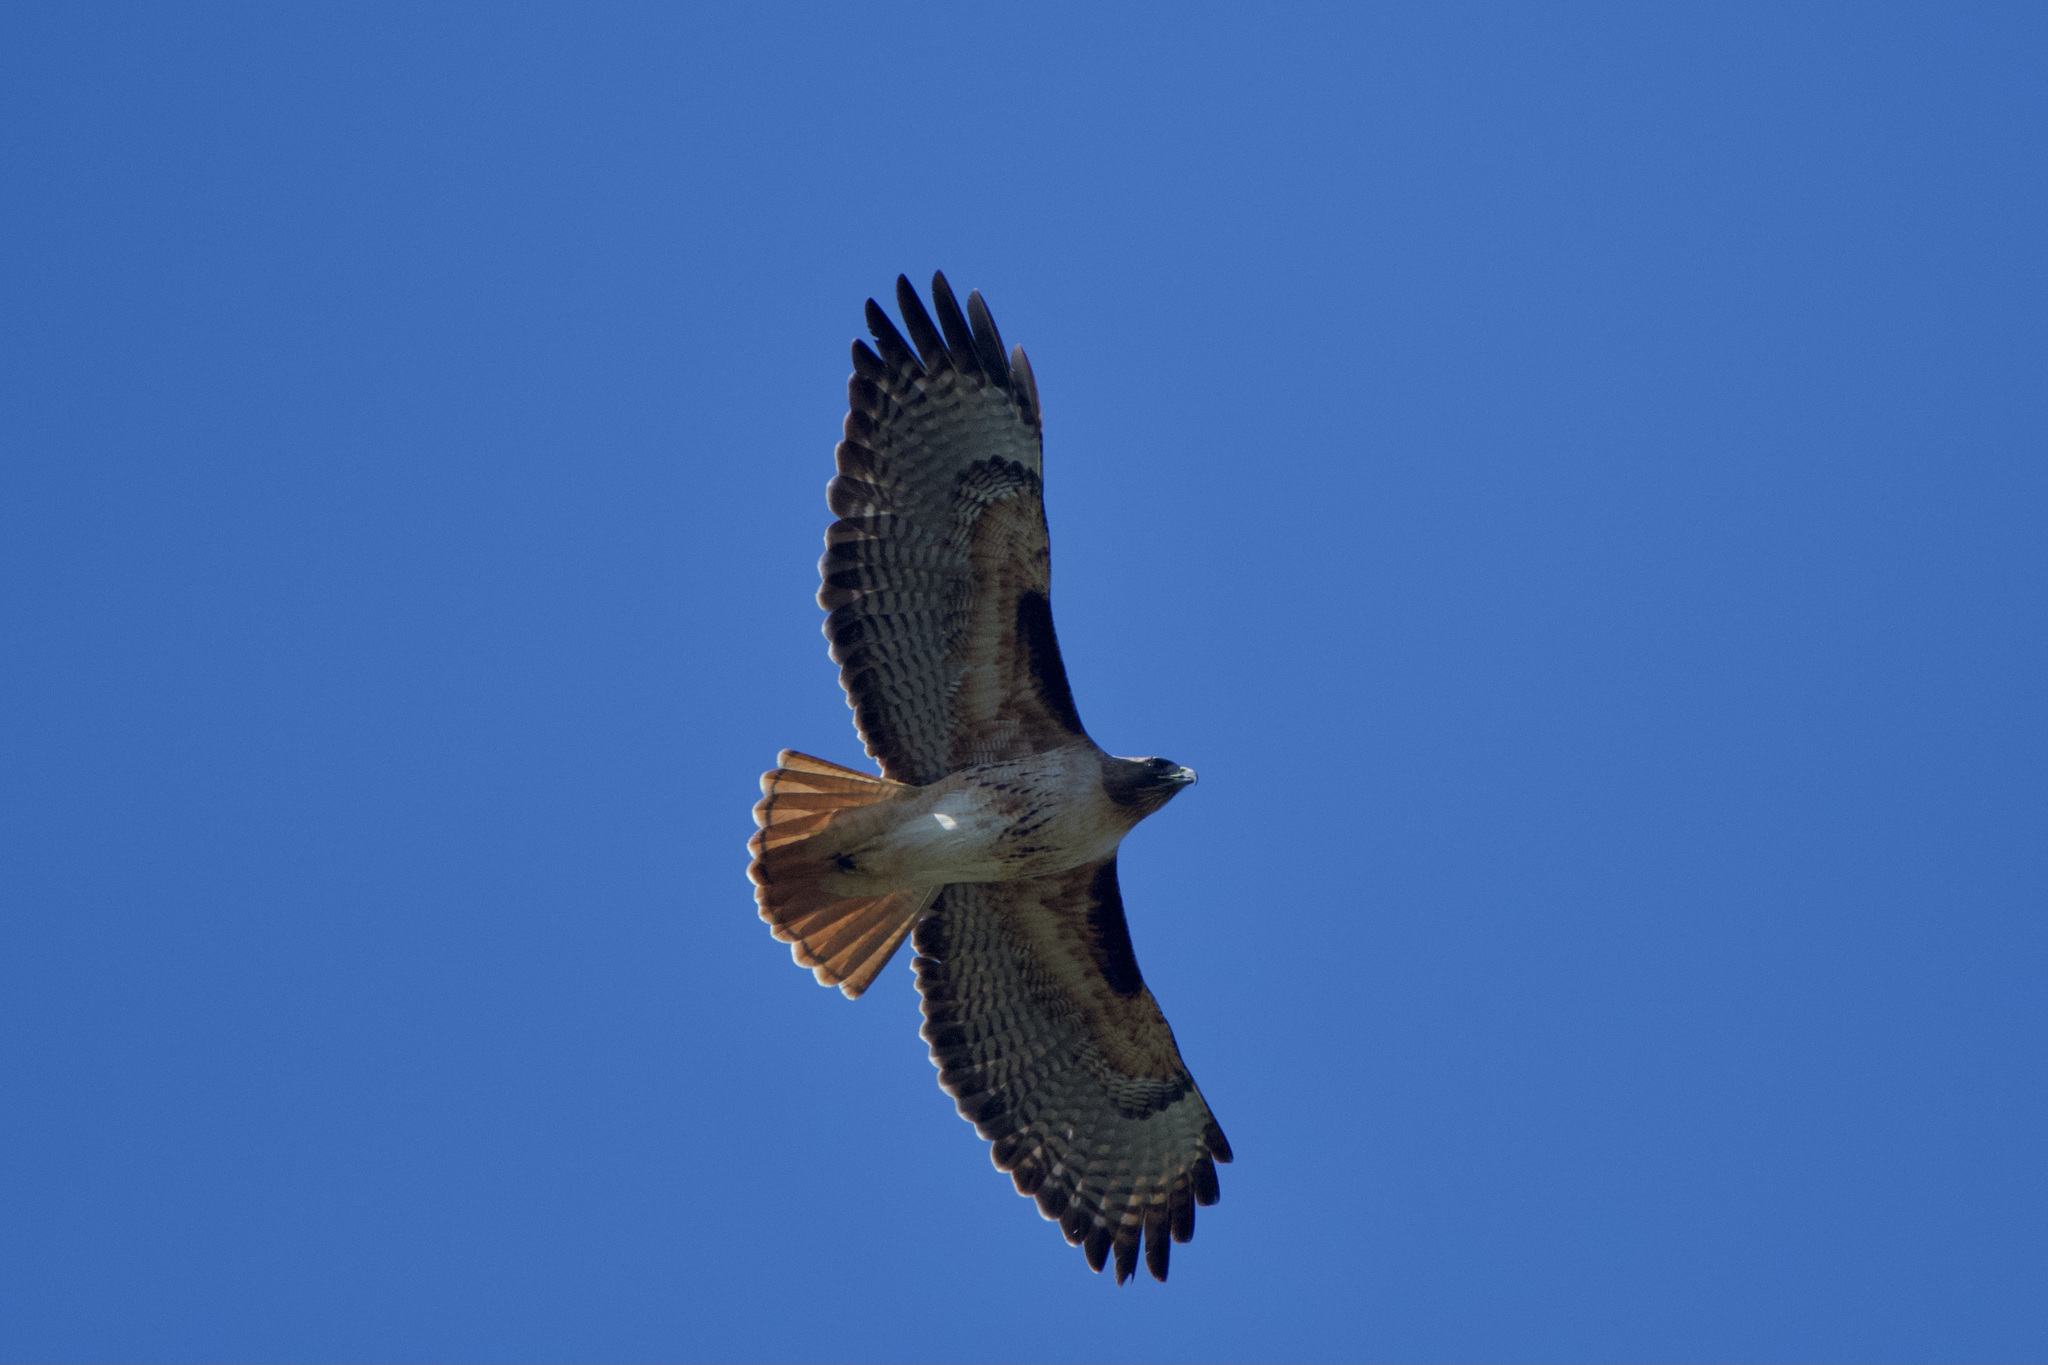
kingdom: Animalia
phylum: Chordata
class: Aves
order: Accipitriformes
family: Accipitridae
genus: Buteo
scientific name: Buteo jamaicensis
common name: Red-tailed hawk
